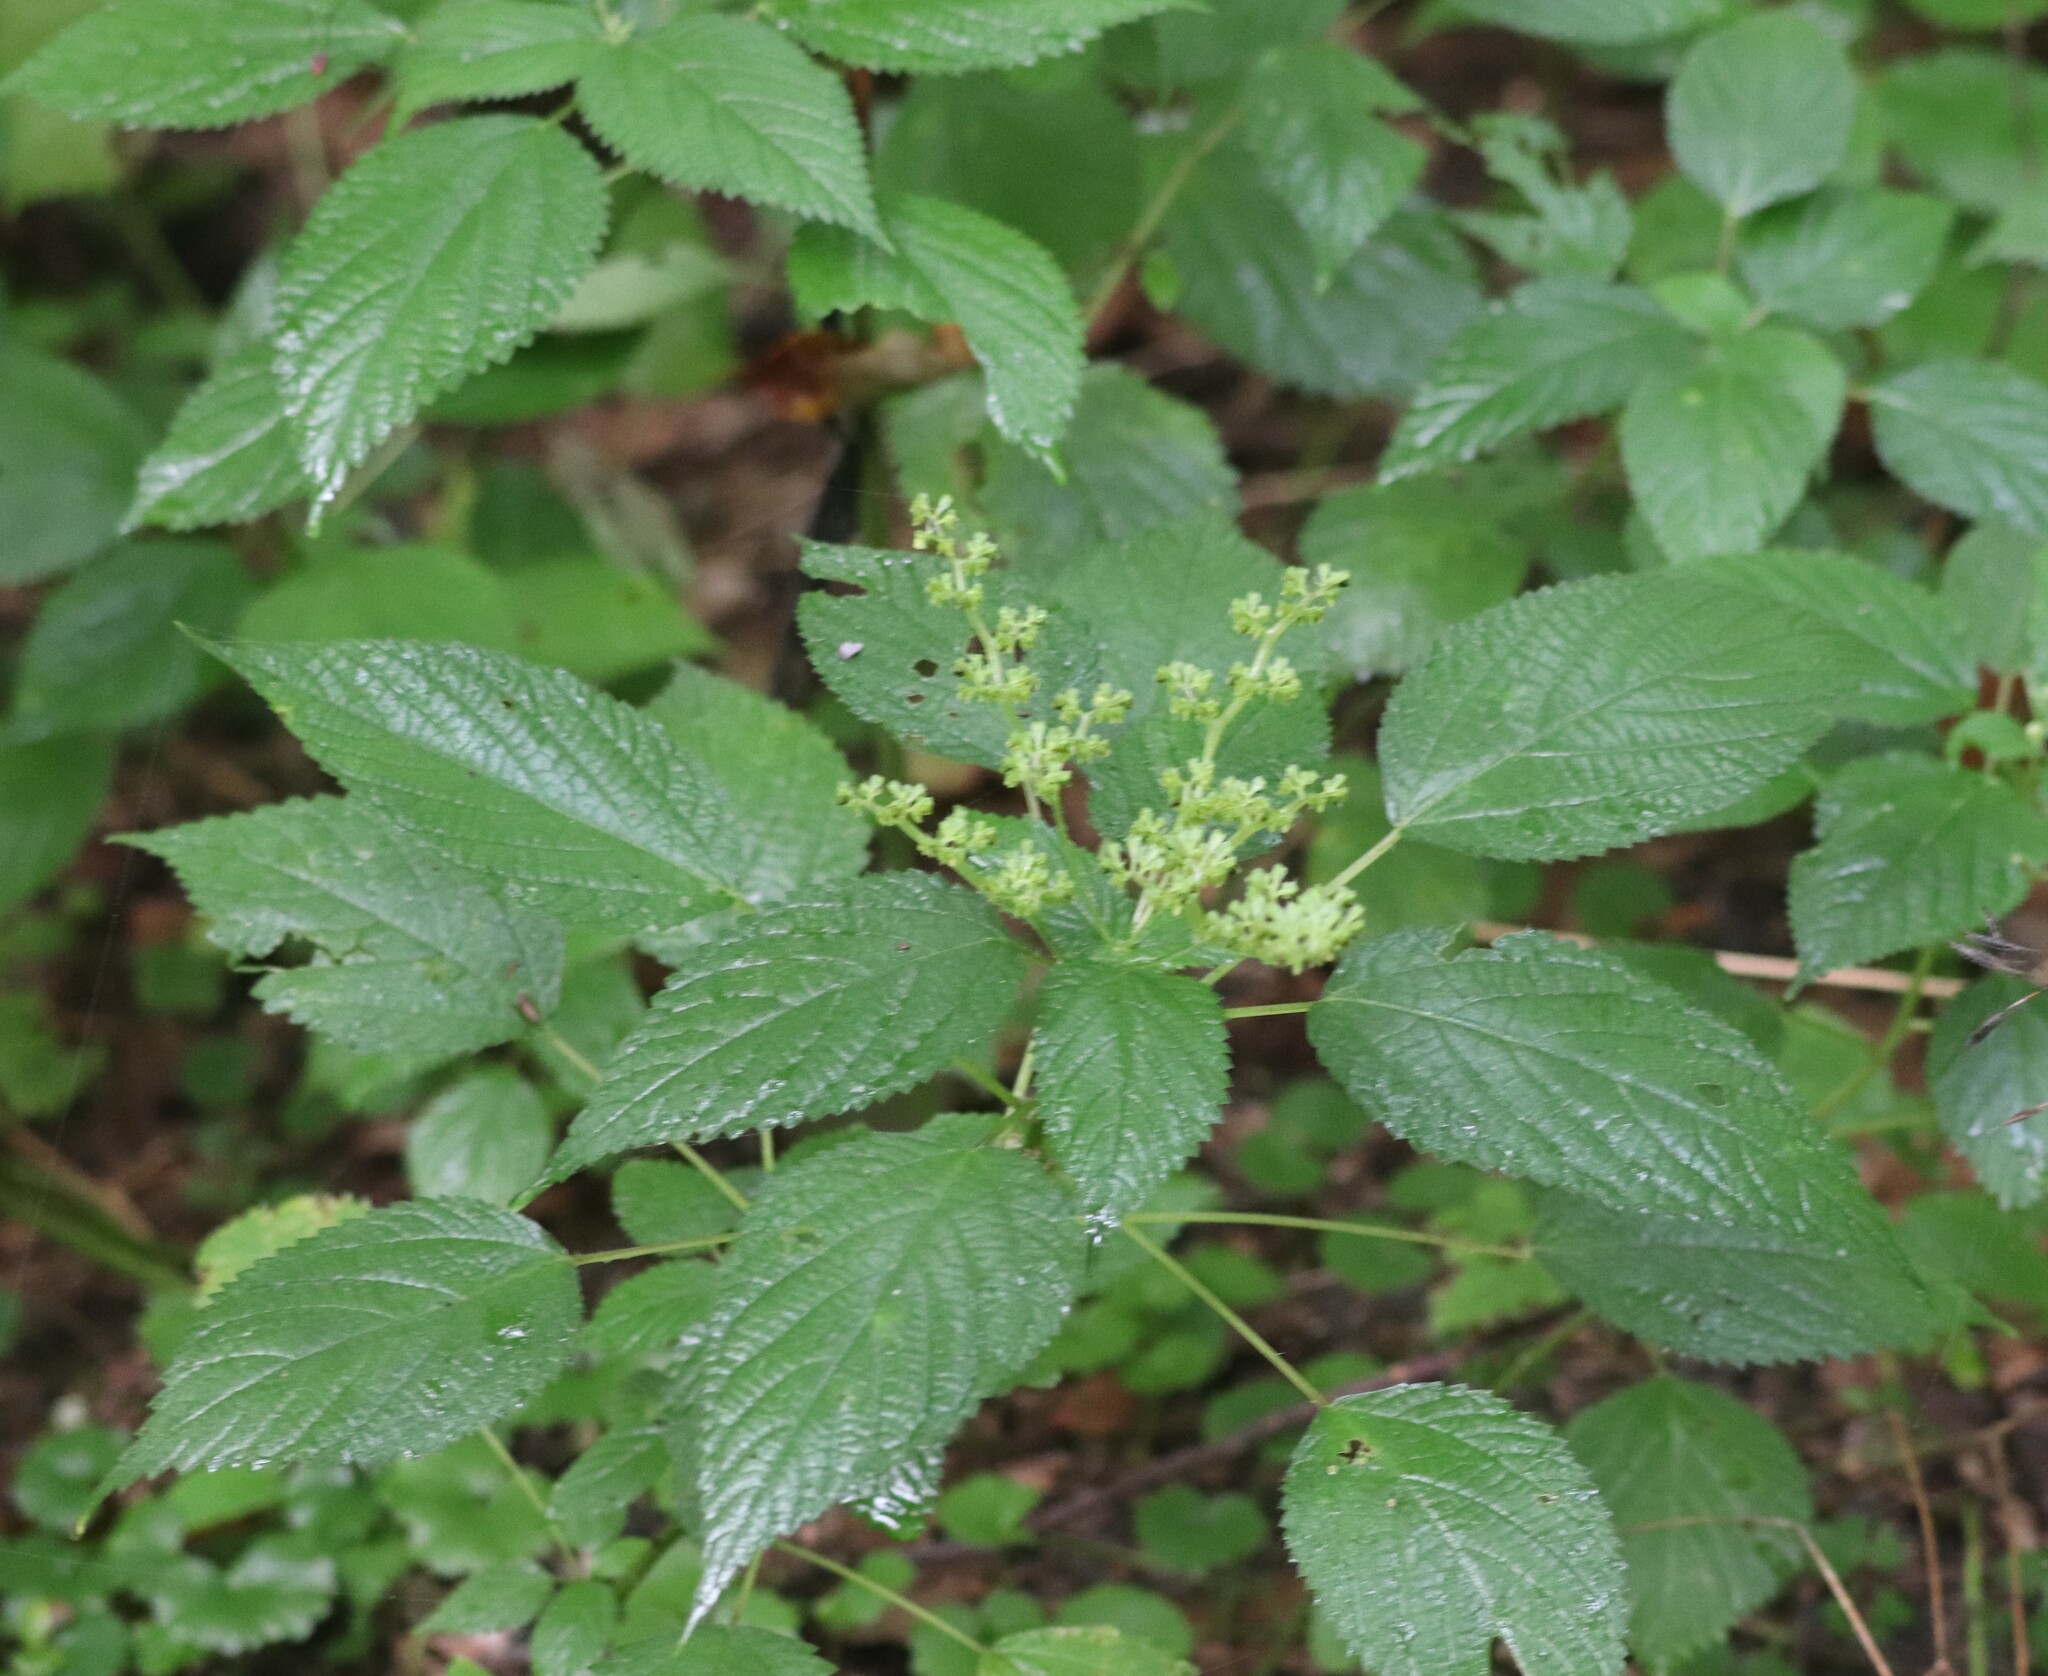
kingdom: Plantae
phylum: Tracheophyta
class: Magnoliopsida
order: Rosales
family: Urticaceae
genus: Laportea
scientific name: Laportea canadensis
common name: Canada nettle
